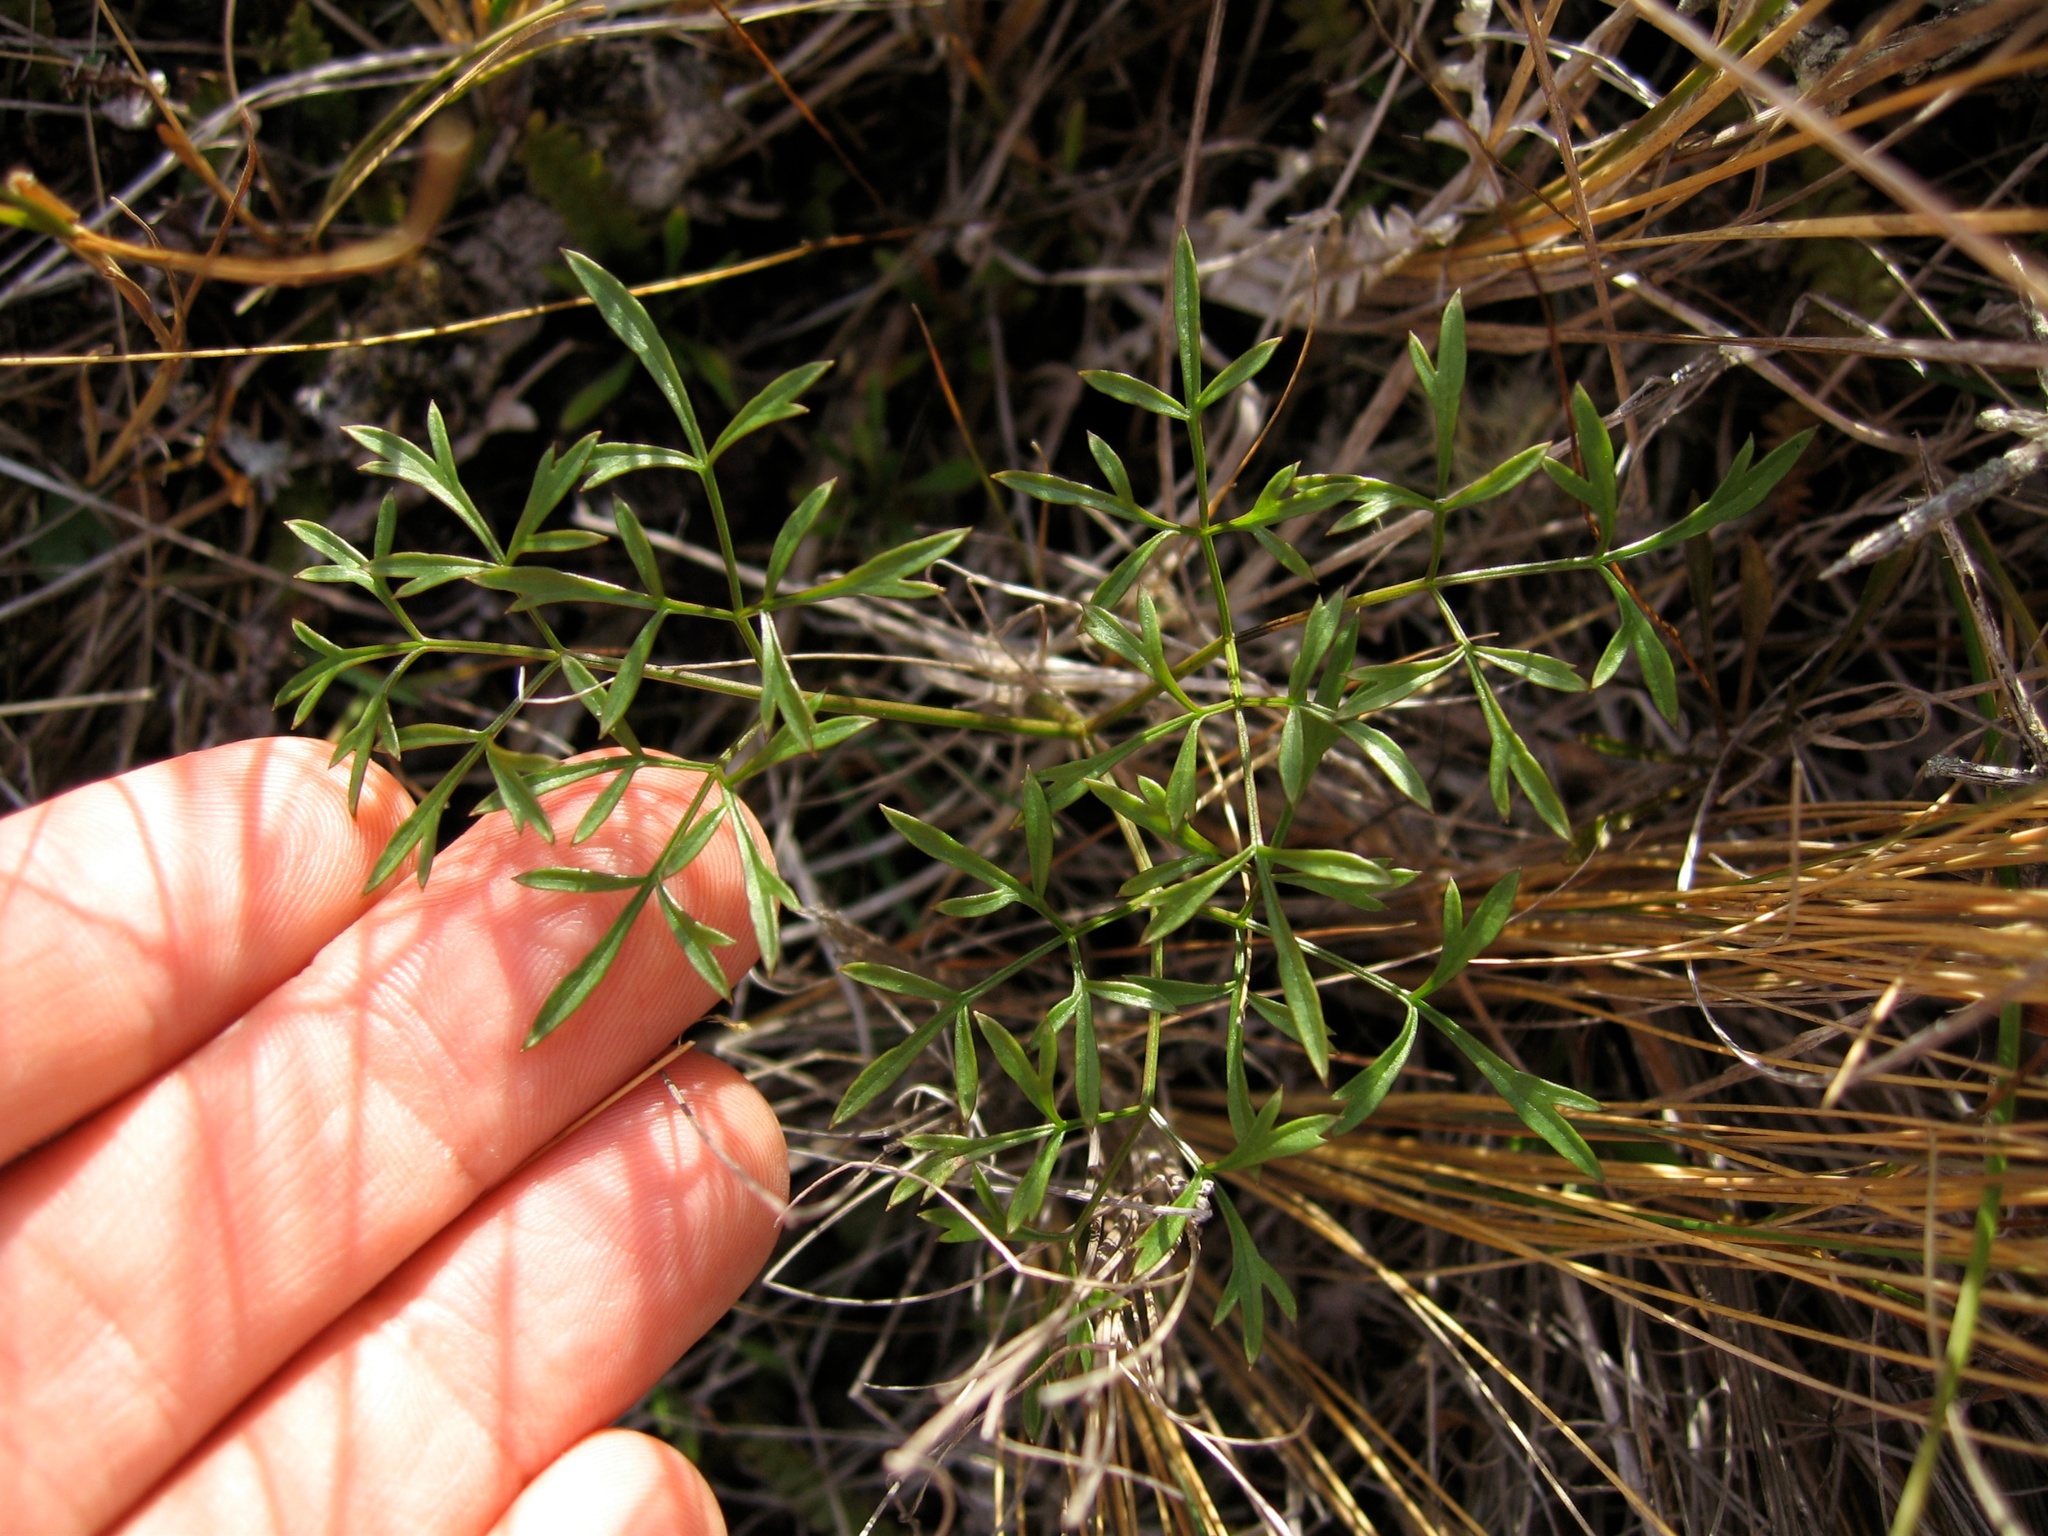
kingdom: Plantae
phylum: Tracheophyta
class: Magnoliopsida
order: Apiales
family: Apiaceae
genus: Anisotome
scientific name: Anisotome filifolia
